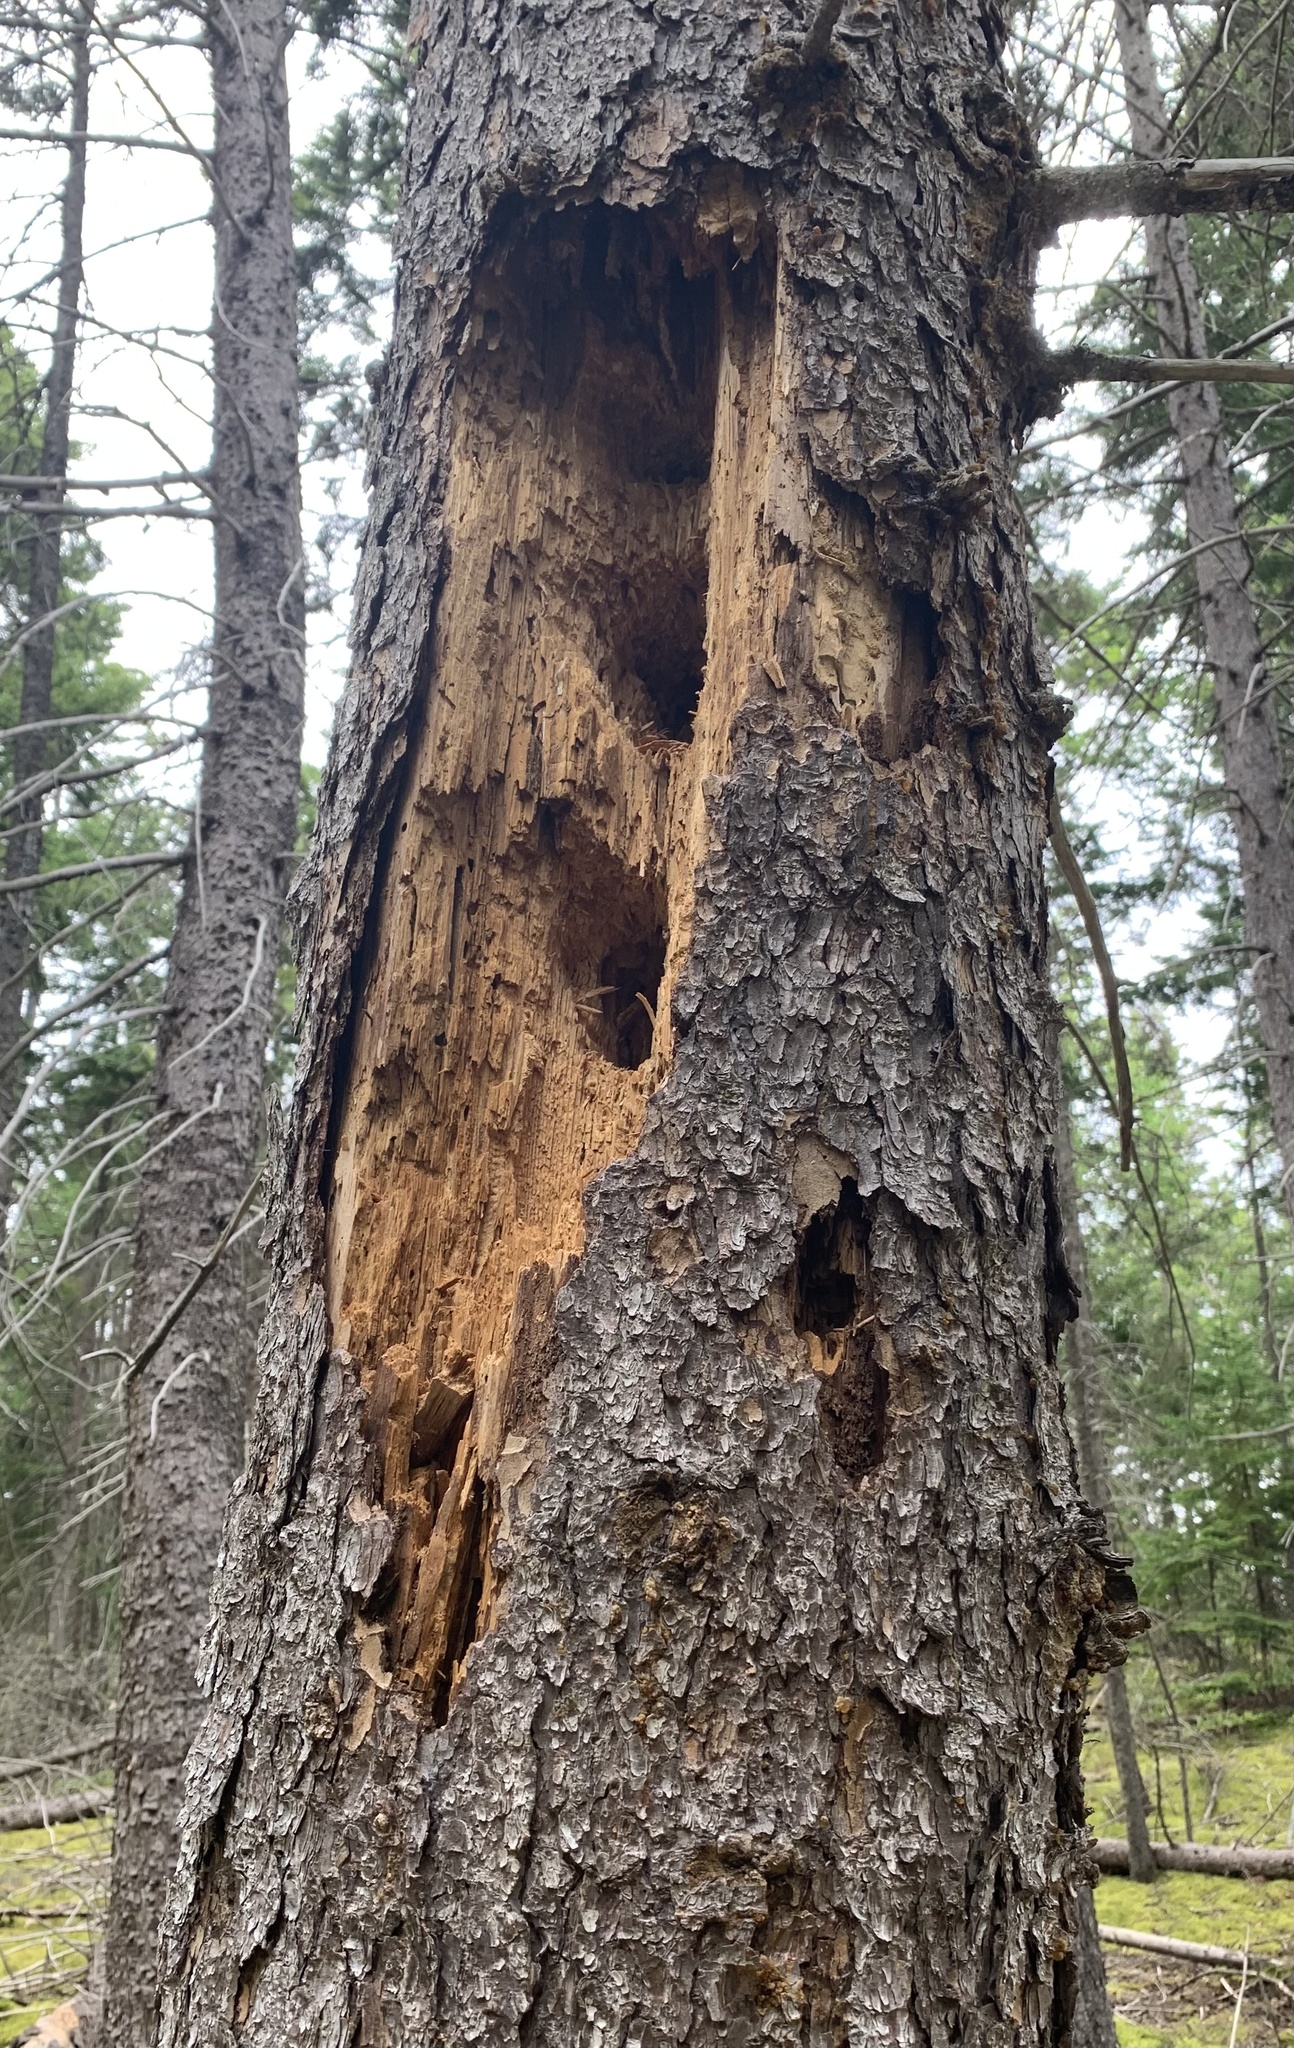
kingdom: Animalia
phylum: Chordata
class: Aves
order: Piciformes
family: Picidae
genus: Dryocopus
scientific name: Dryocopus pileatus
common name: Pileated woodpecker
